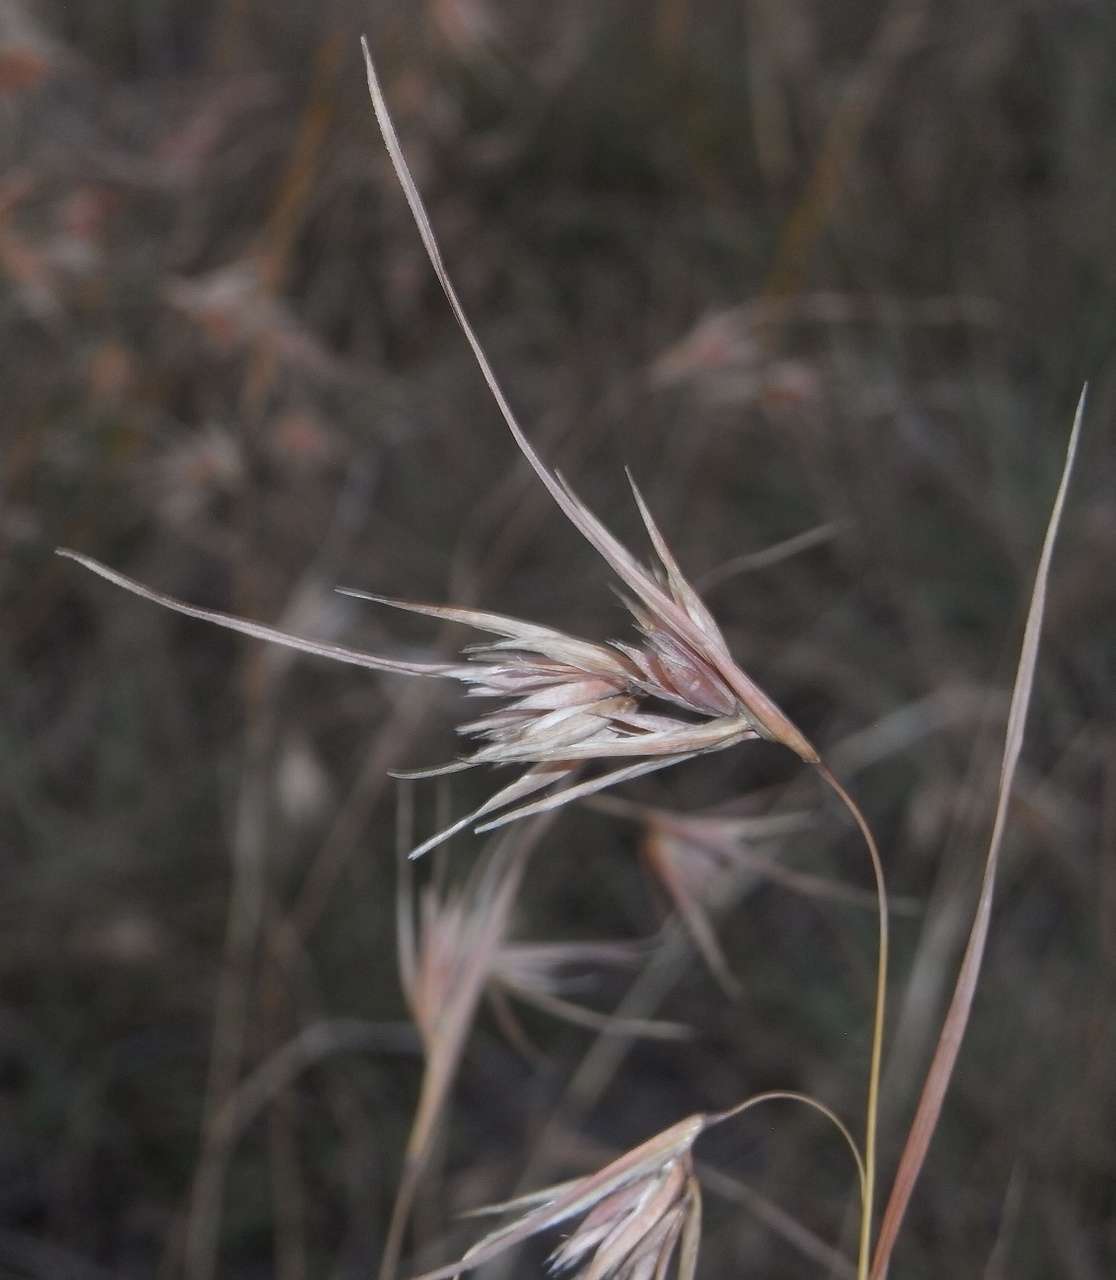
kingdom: Plantae
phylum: Tracheophyta
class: Liliopsida
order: Poales
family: Poaceae
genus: Themeda
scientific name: Themeda triandra
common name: Kangaroo grass
